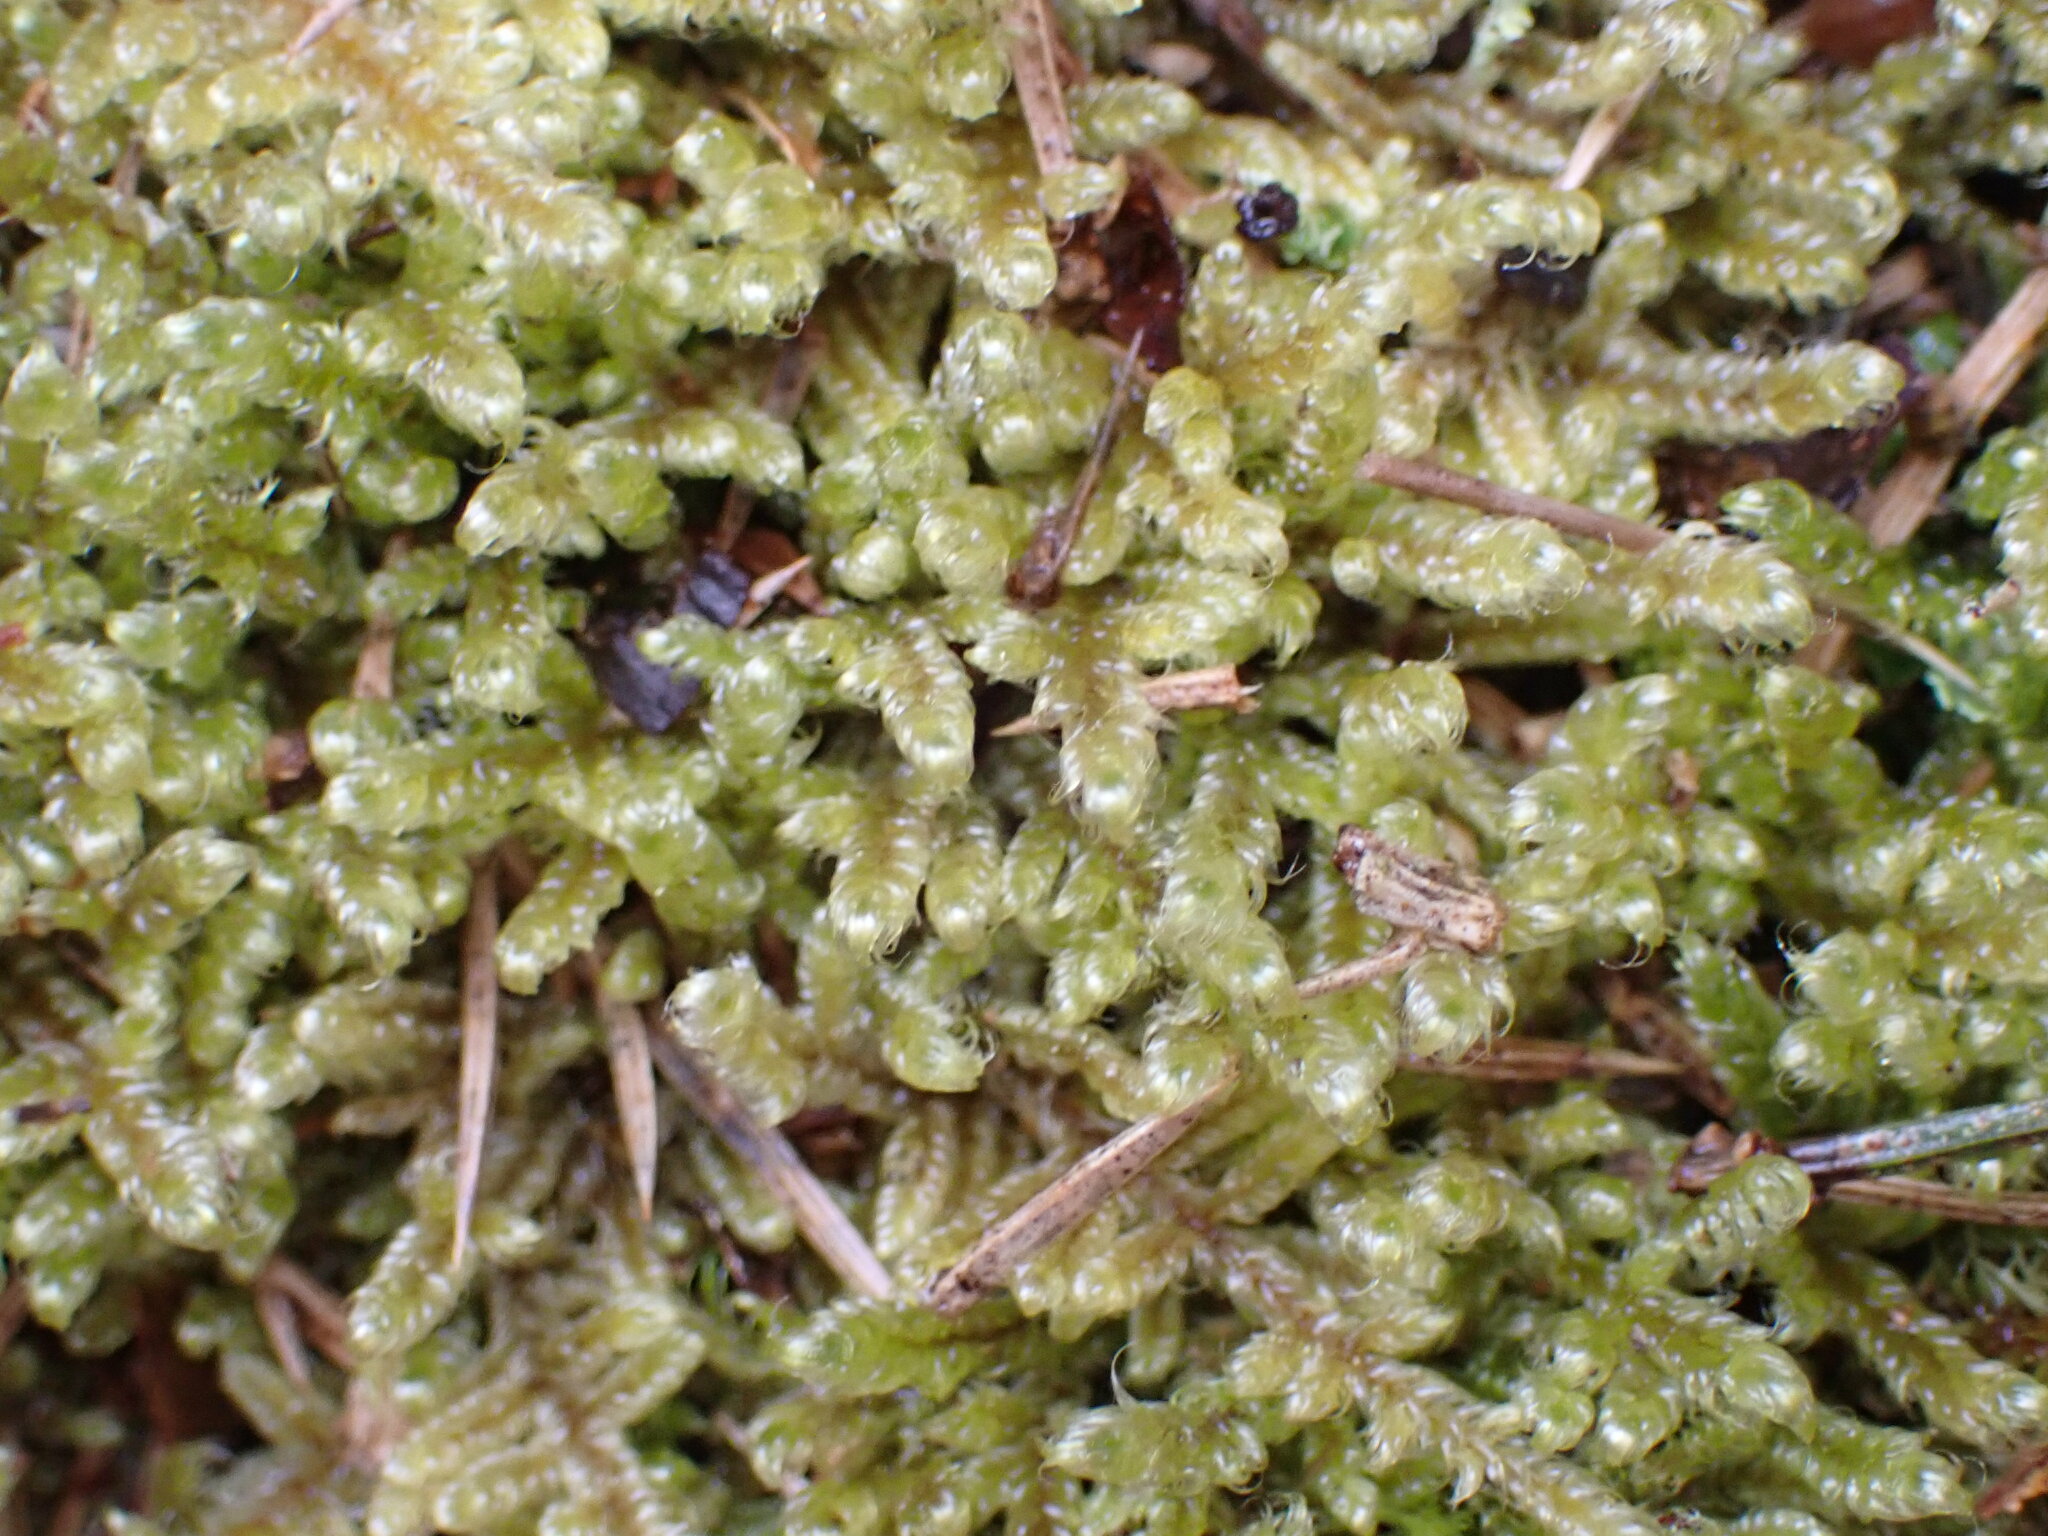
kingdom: Plantae
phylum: Bryophyta
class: Bryopsida
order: Hypnales
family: Hypnaceae
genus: Hypnum
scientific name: Hypnum cupressiforme
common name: Cypress-leaved plait-moss
